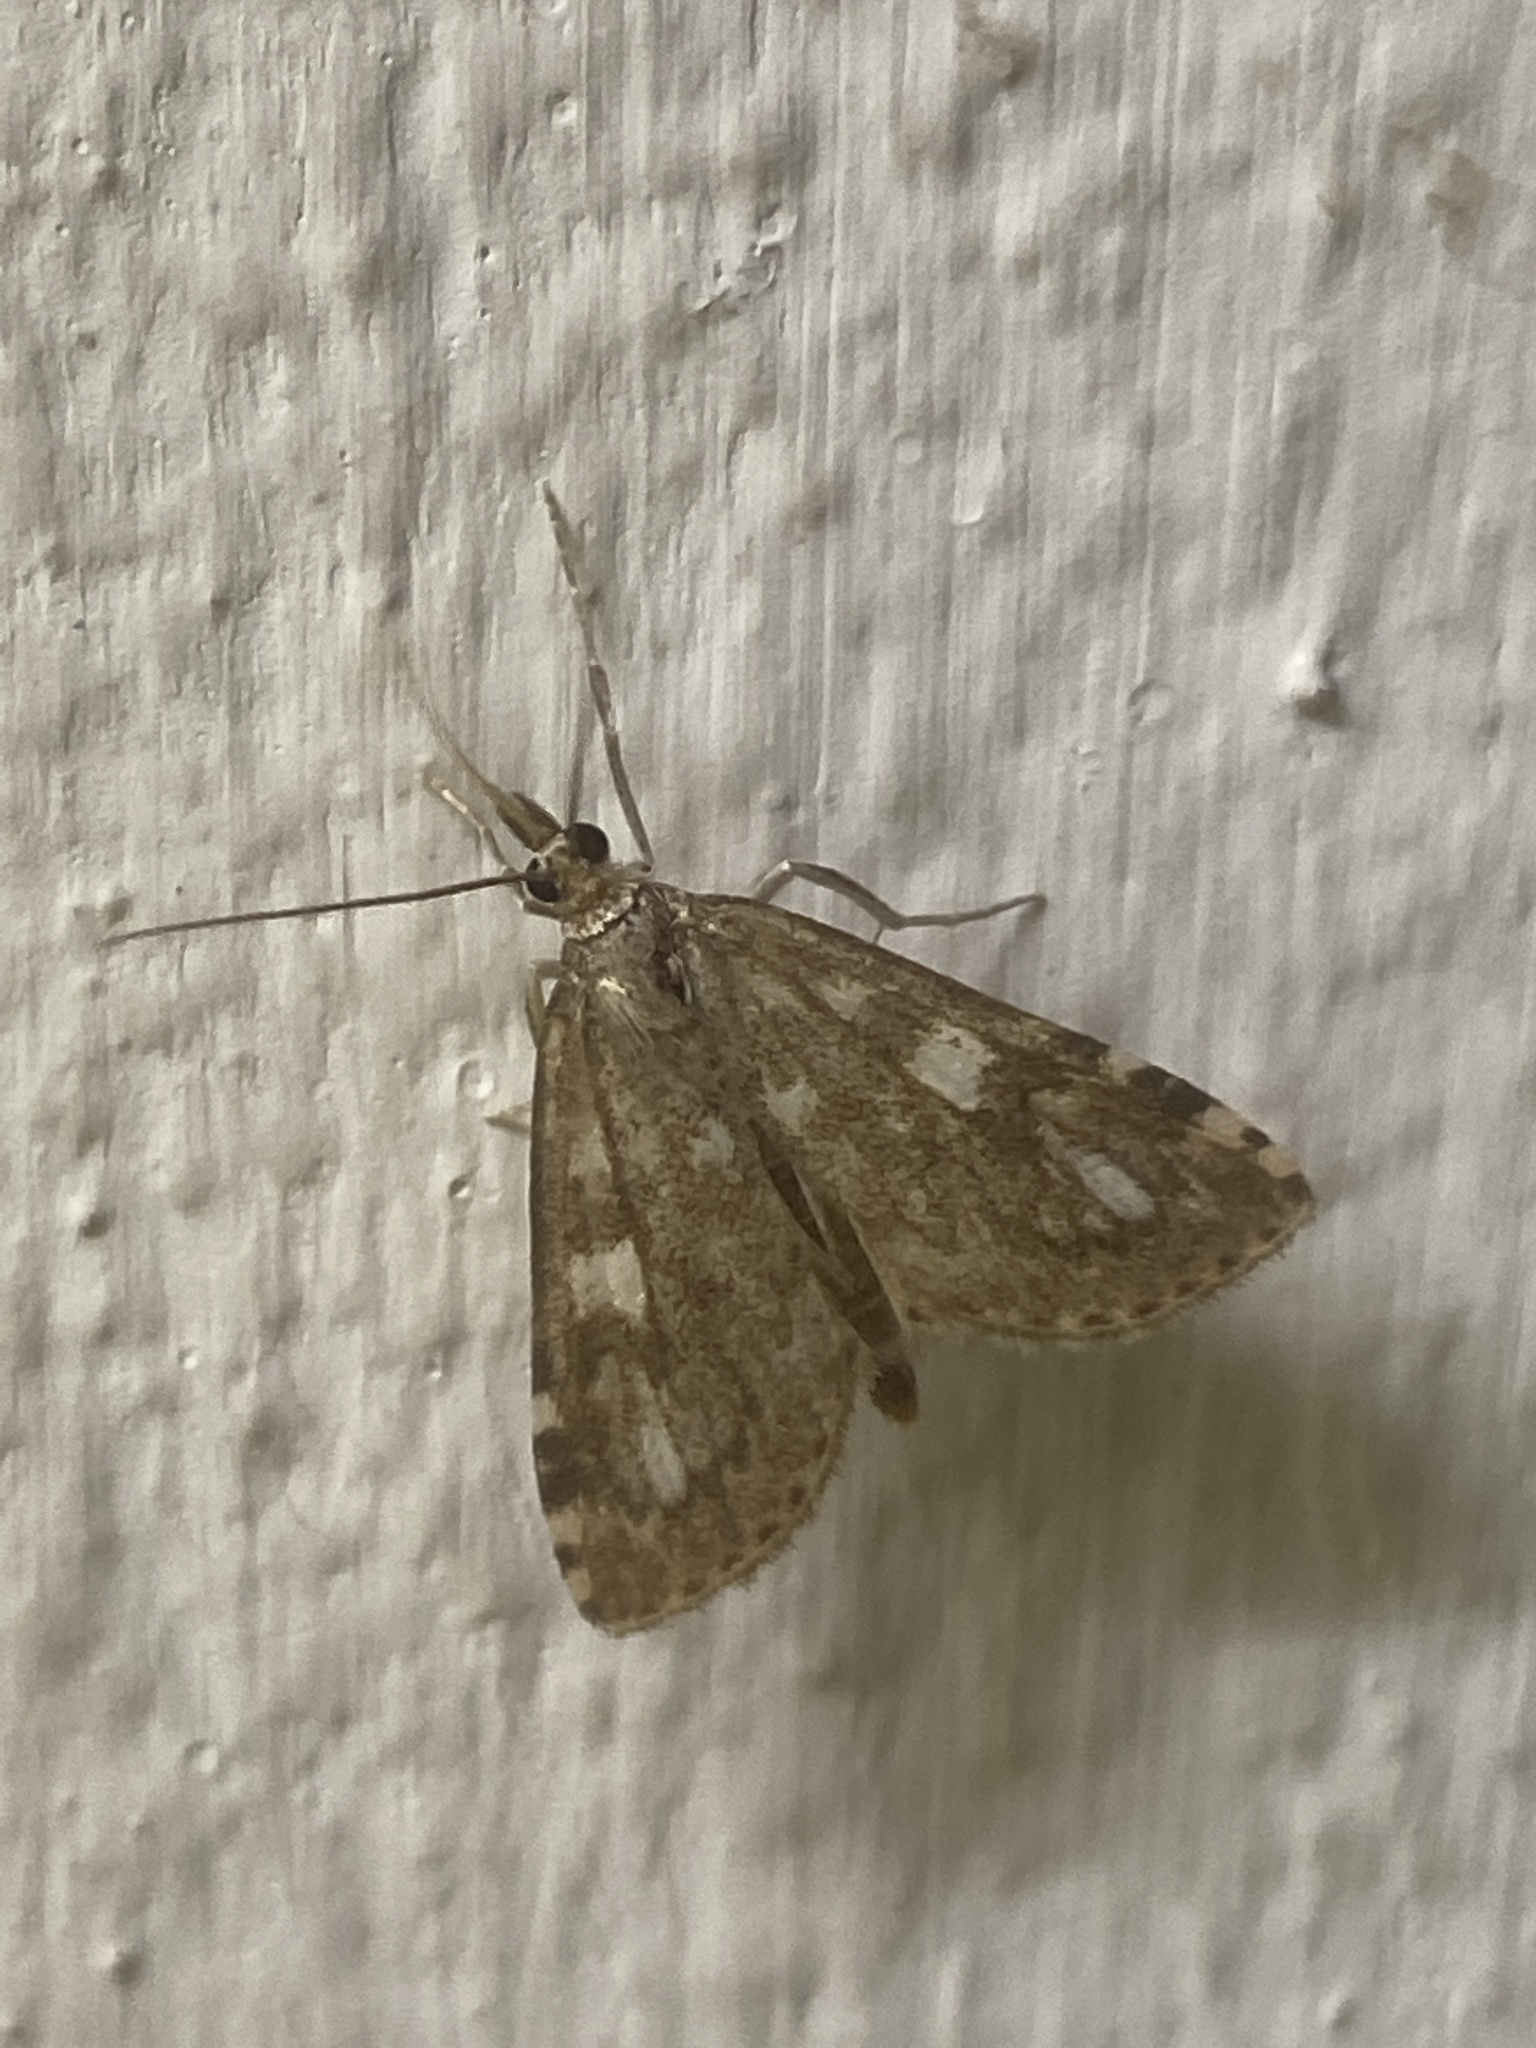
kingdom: Animalia
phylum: Arthropoda
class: Insecta
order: Lepidoptera
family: Crambidae
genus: Udea
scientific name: Udea olivalis
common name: Olive pearl
